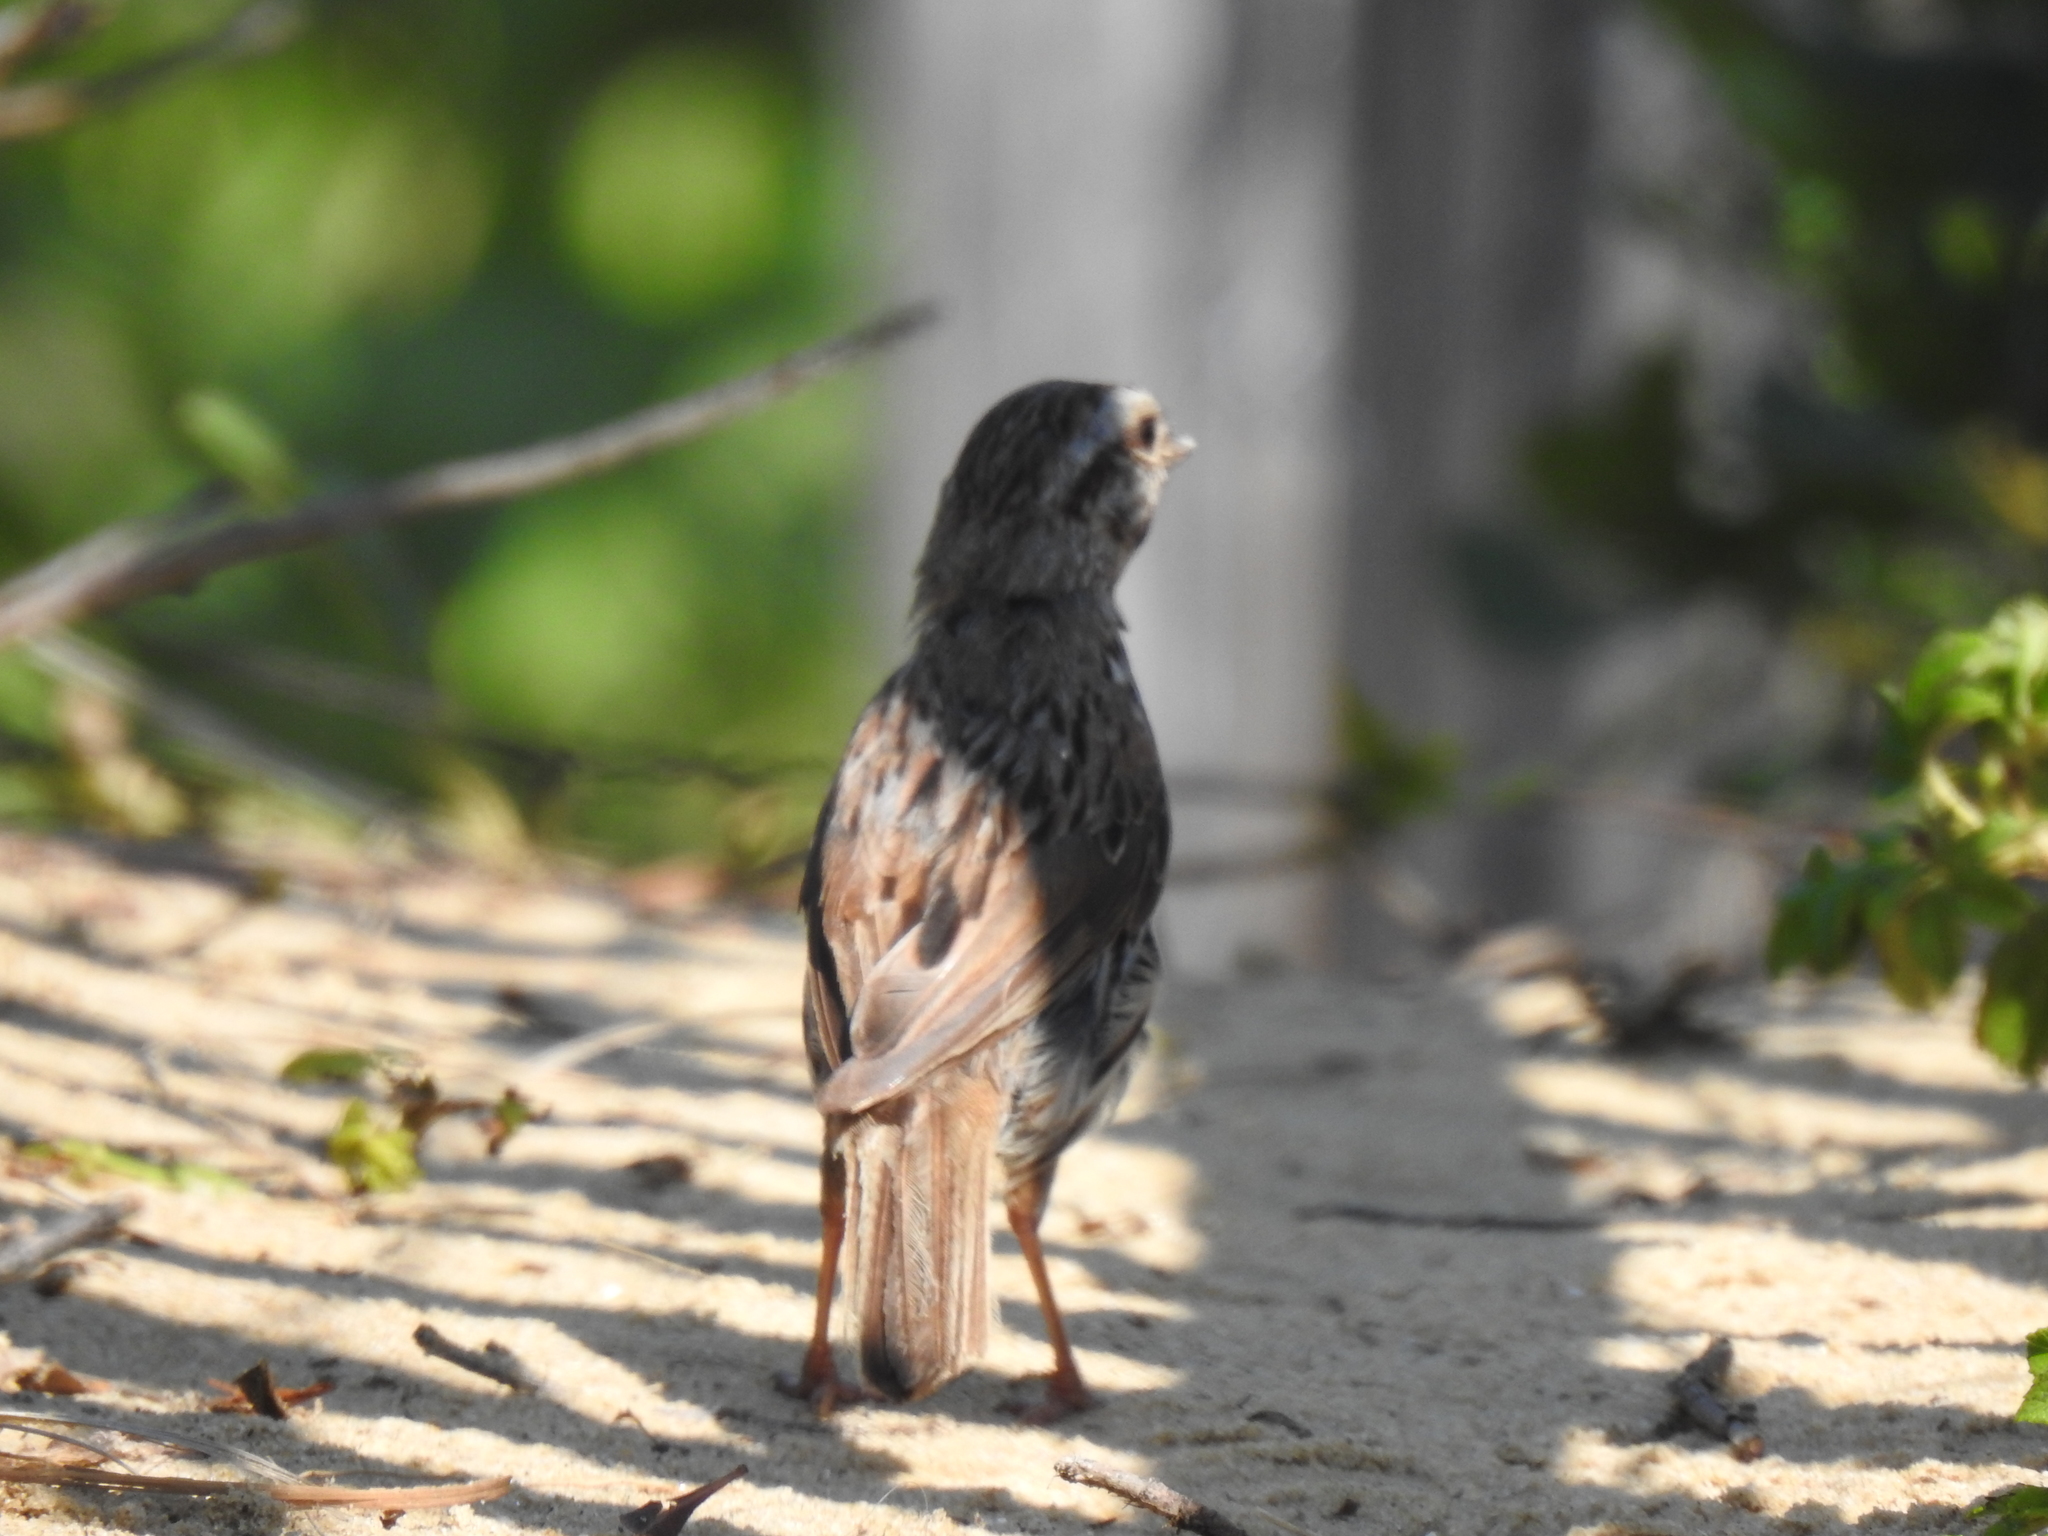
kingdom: Animalia
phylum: Chordata
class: Aves
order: Passeriformes
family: Passerellidae
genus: Melospiza
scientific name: Melospiza melodia
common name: Song sparrow
